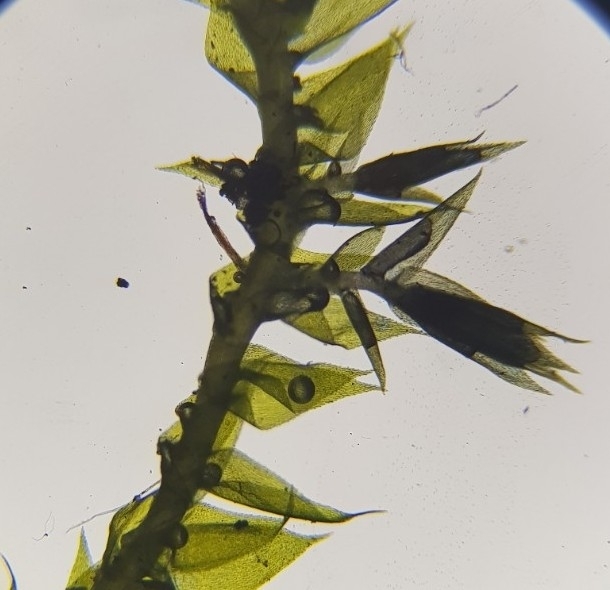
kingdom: Plantae
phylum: Bryophyta
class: Bryopsida
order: Hypnales
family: Amblystegiaceae
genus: Amblystegium
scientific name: Amblystegium serpens
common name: Jurkatzka's feather moss
